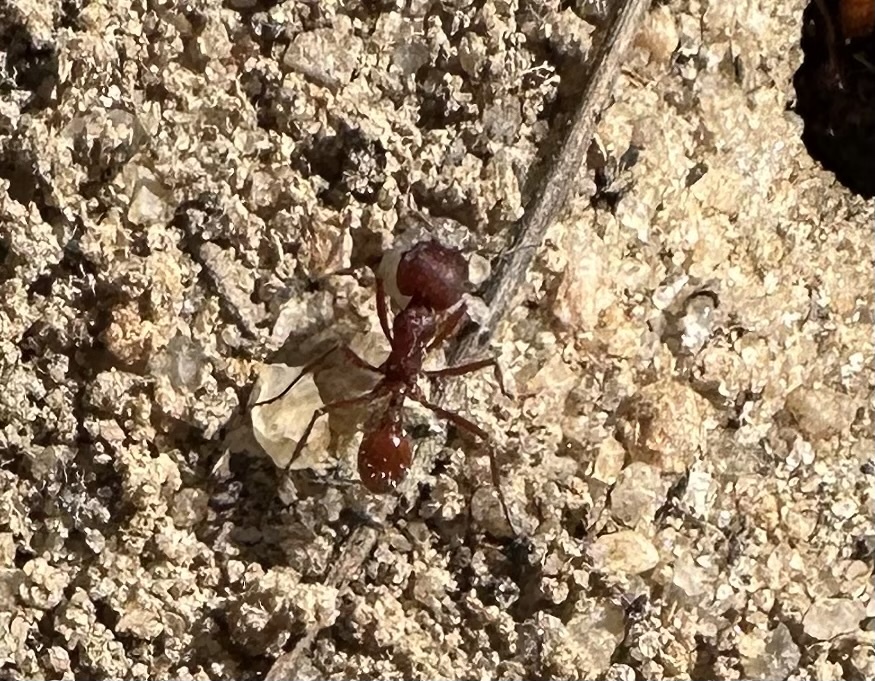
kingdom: Animalia
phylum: Arthropoda
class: Insecta
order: Hymenoptera
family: Formicidae
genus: Pogonomyrmex
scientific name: Pogonomyrmex badius
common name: Florida harvester ant
